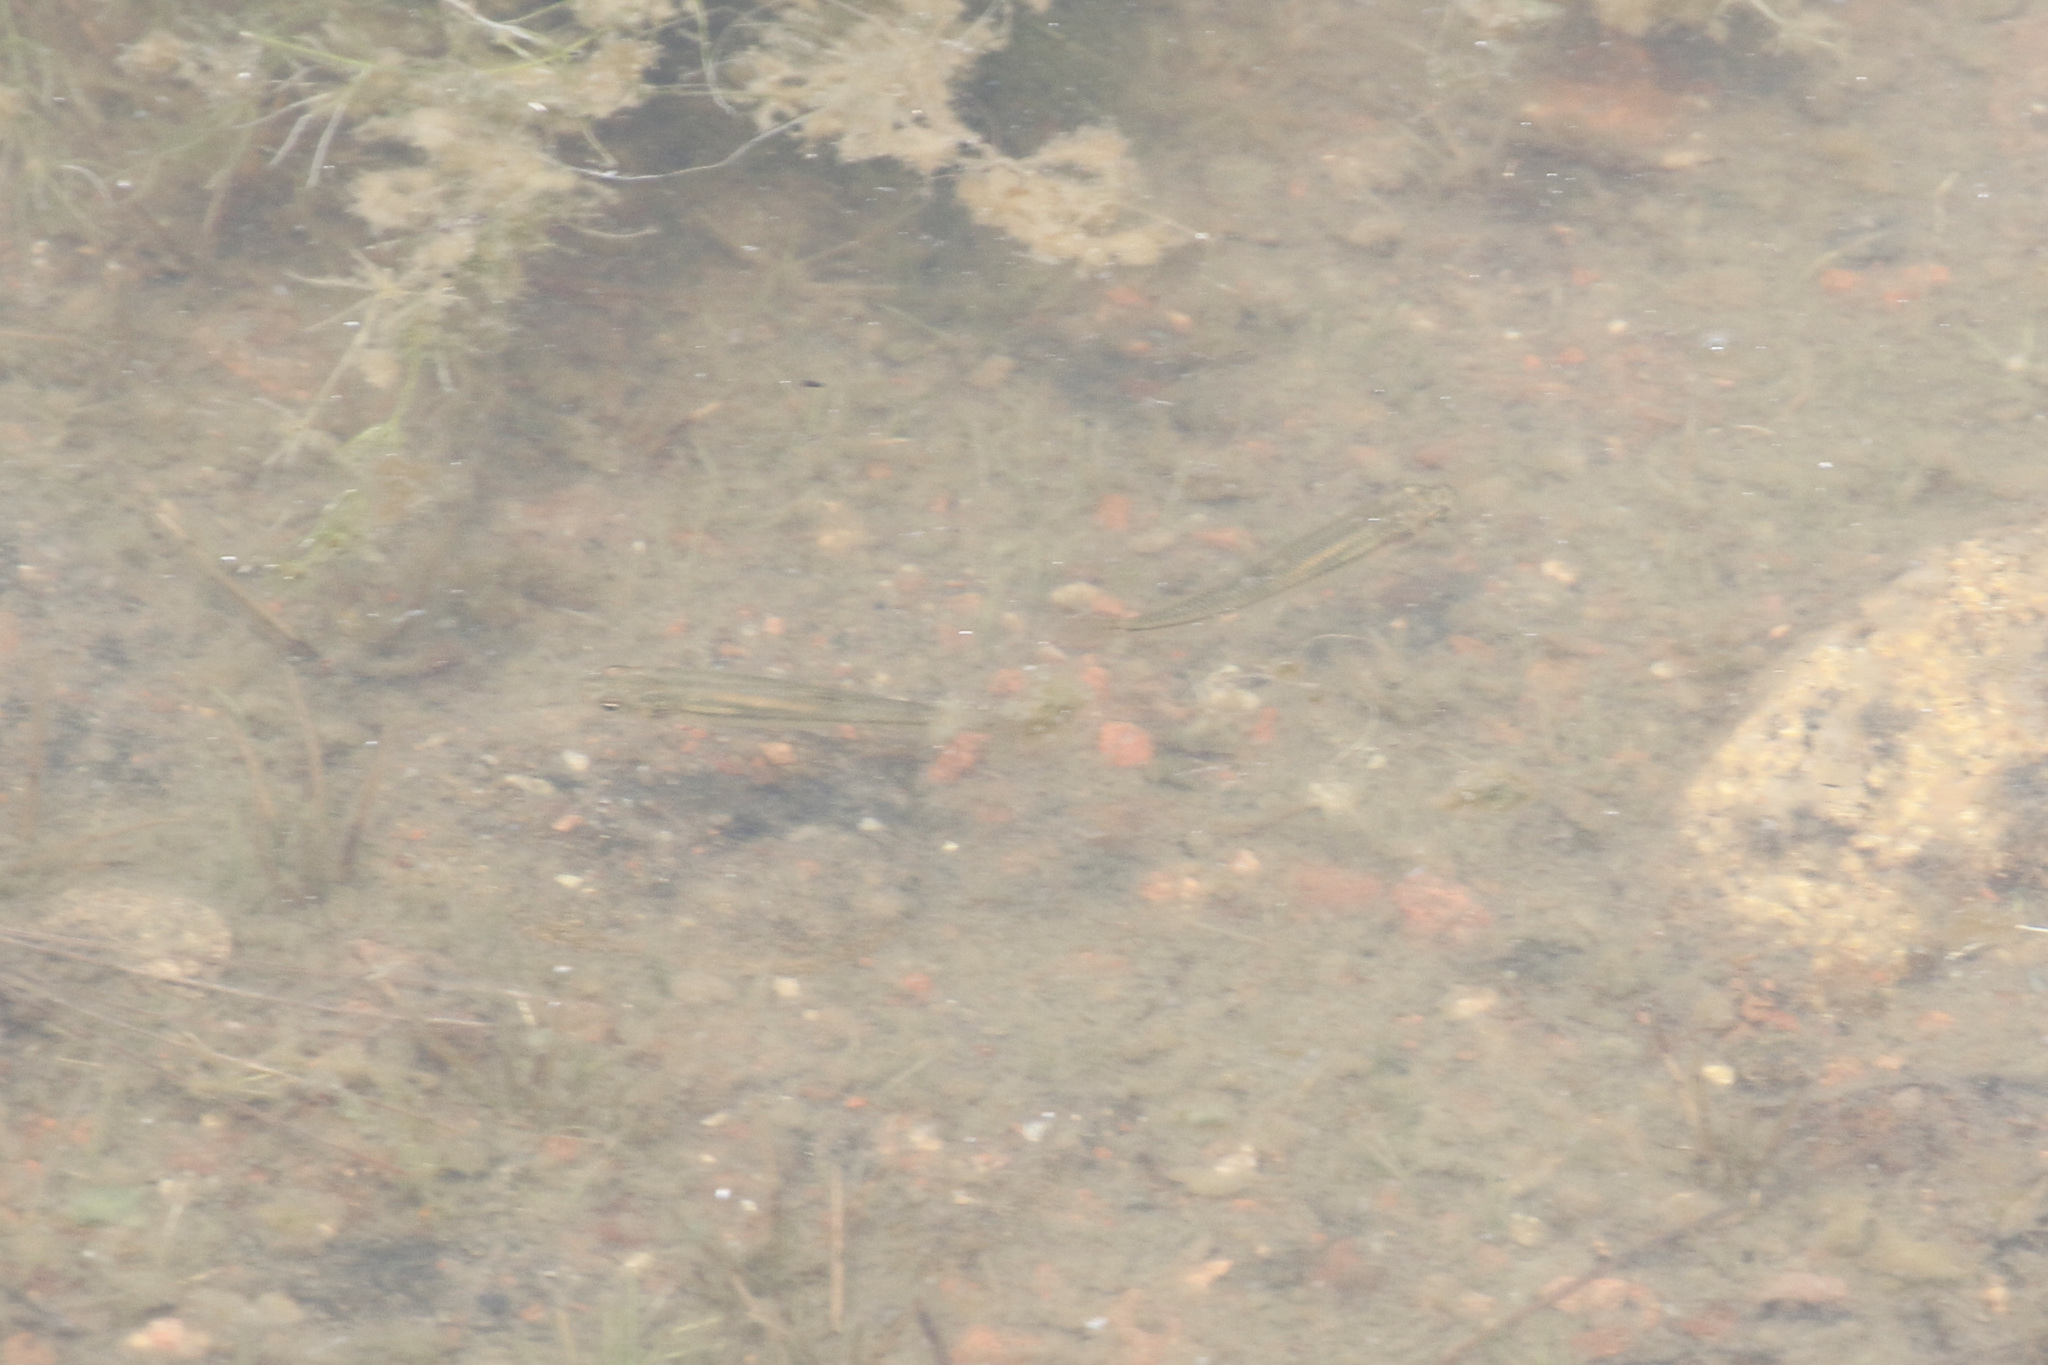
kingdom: Animalia
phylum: Chordata
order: Cypriniformes
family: Cyprinidae
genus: Pimephales
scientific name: Pimephales promelas
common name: Fathead minnow
